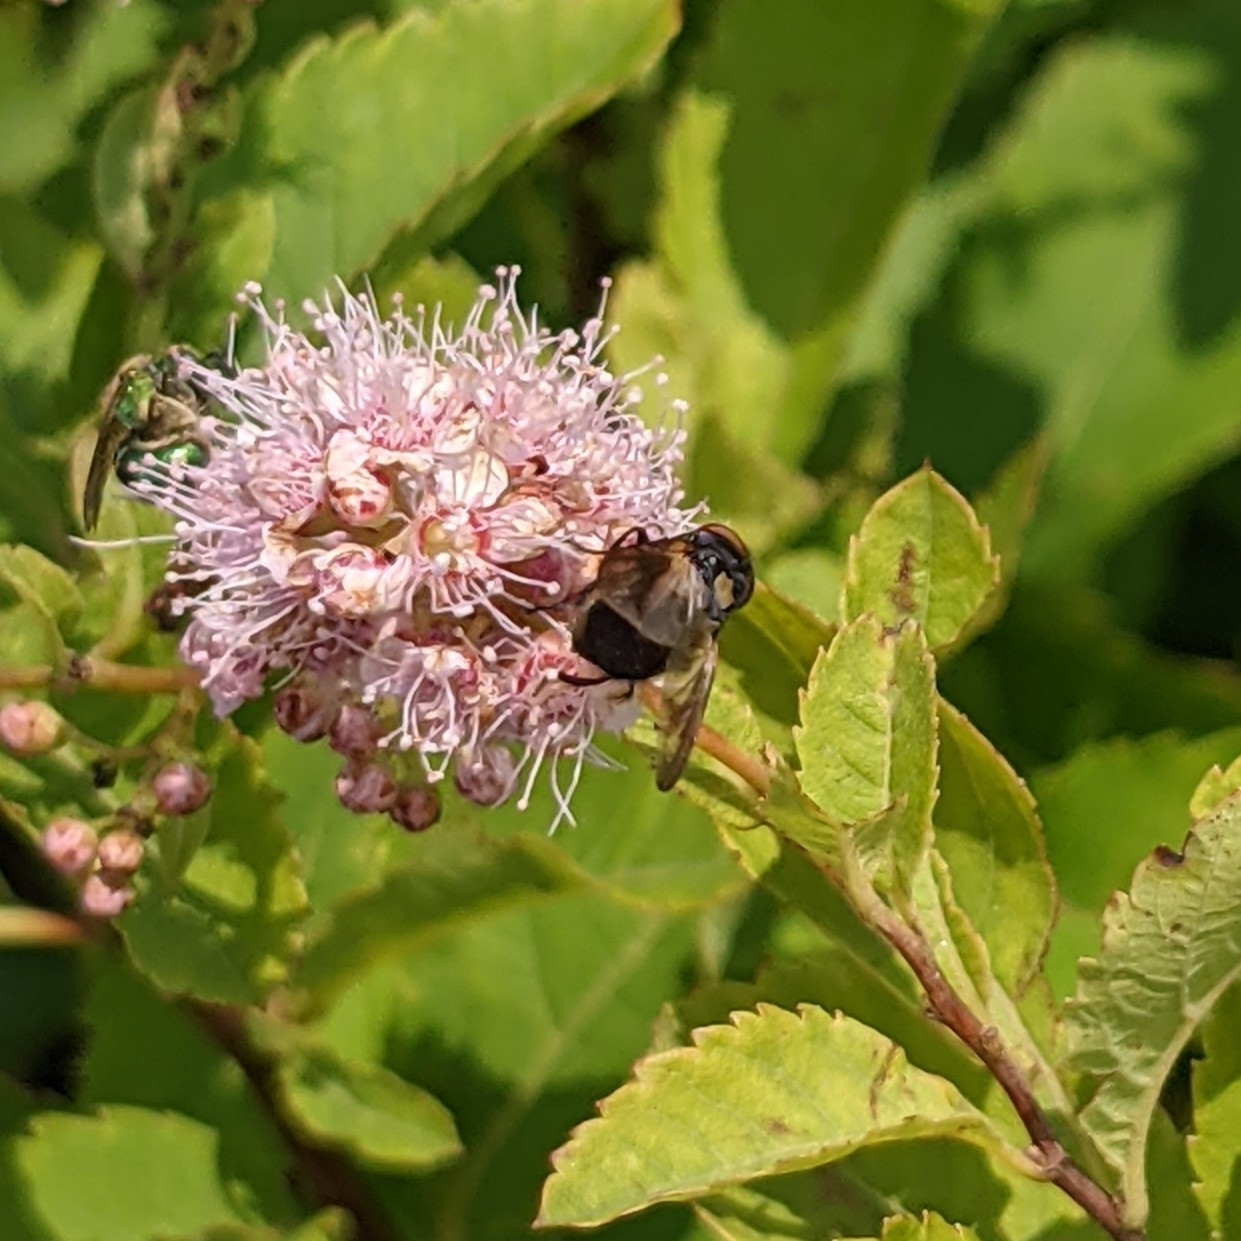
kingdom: Animalia
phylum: Arthropoda
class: Insecta
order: Diptera
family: Tachinidae
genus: Phasia
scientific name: Phasia aurulans
